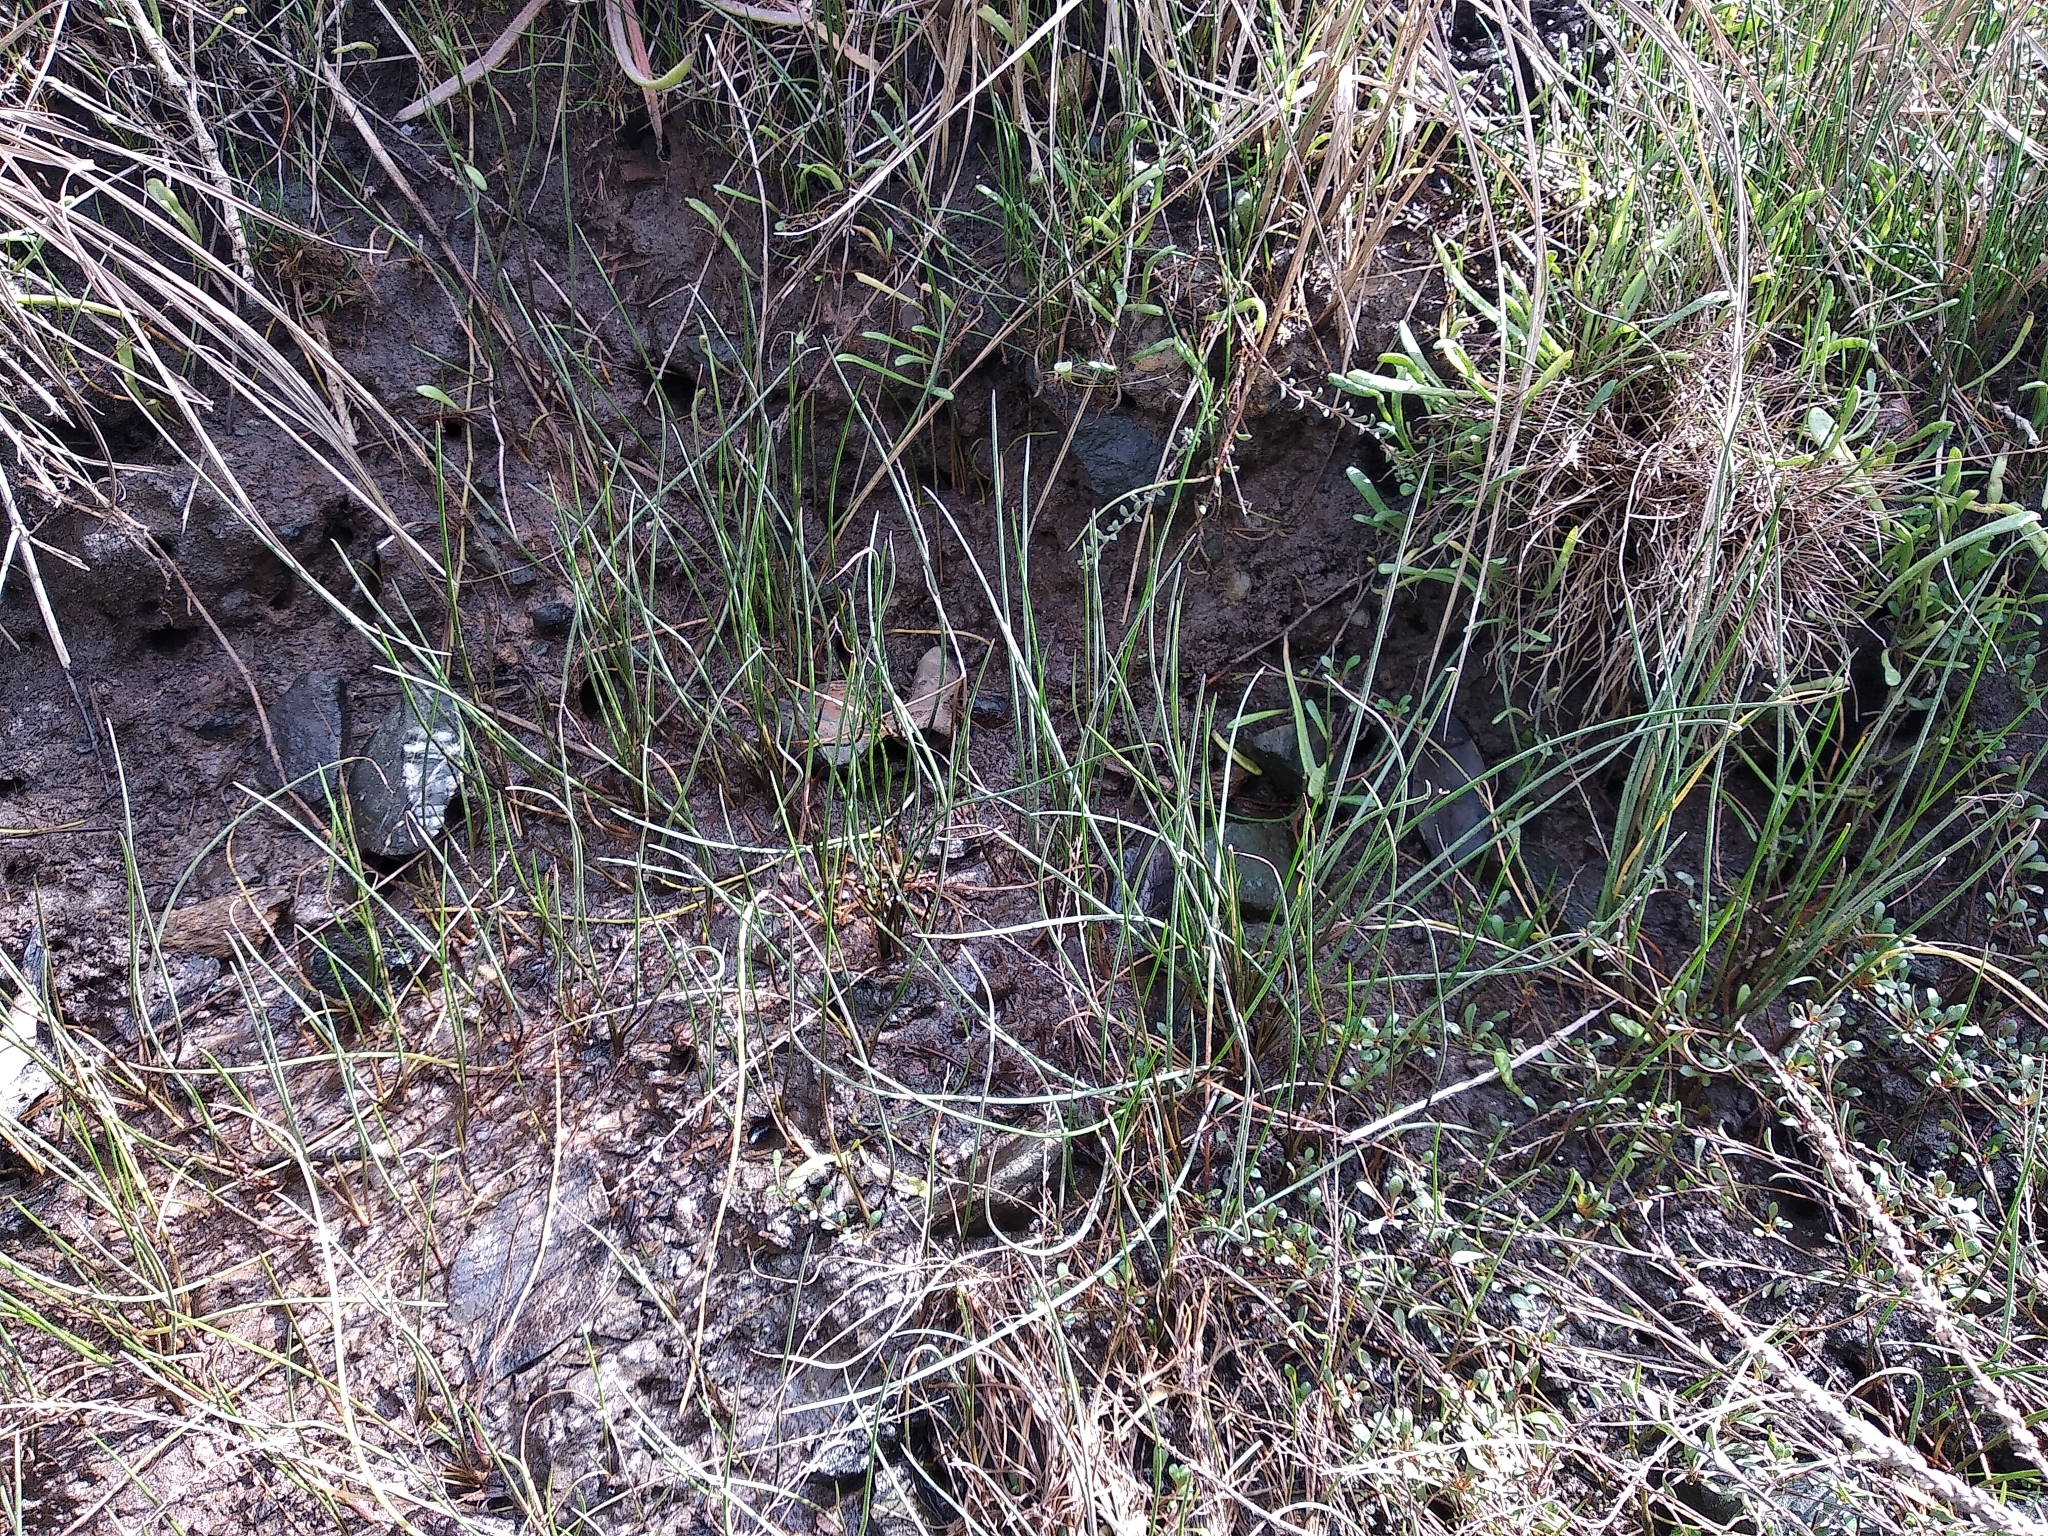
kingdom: Plantae
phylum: Tracheophyta
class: Liliopsida
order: Alismatales
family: Juncaginaceae
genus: Triglochin
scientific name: Triglochin striata
